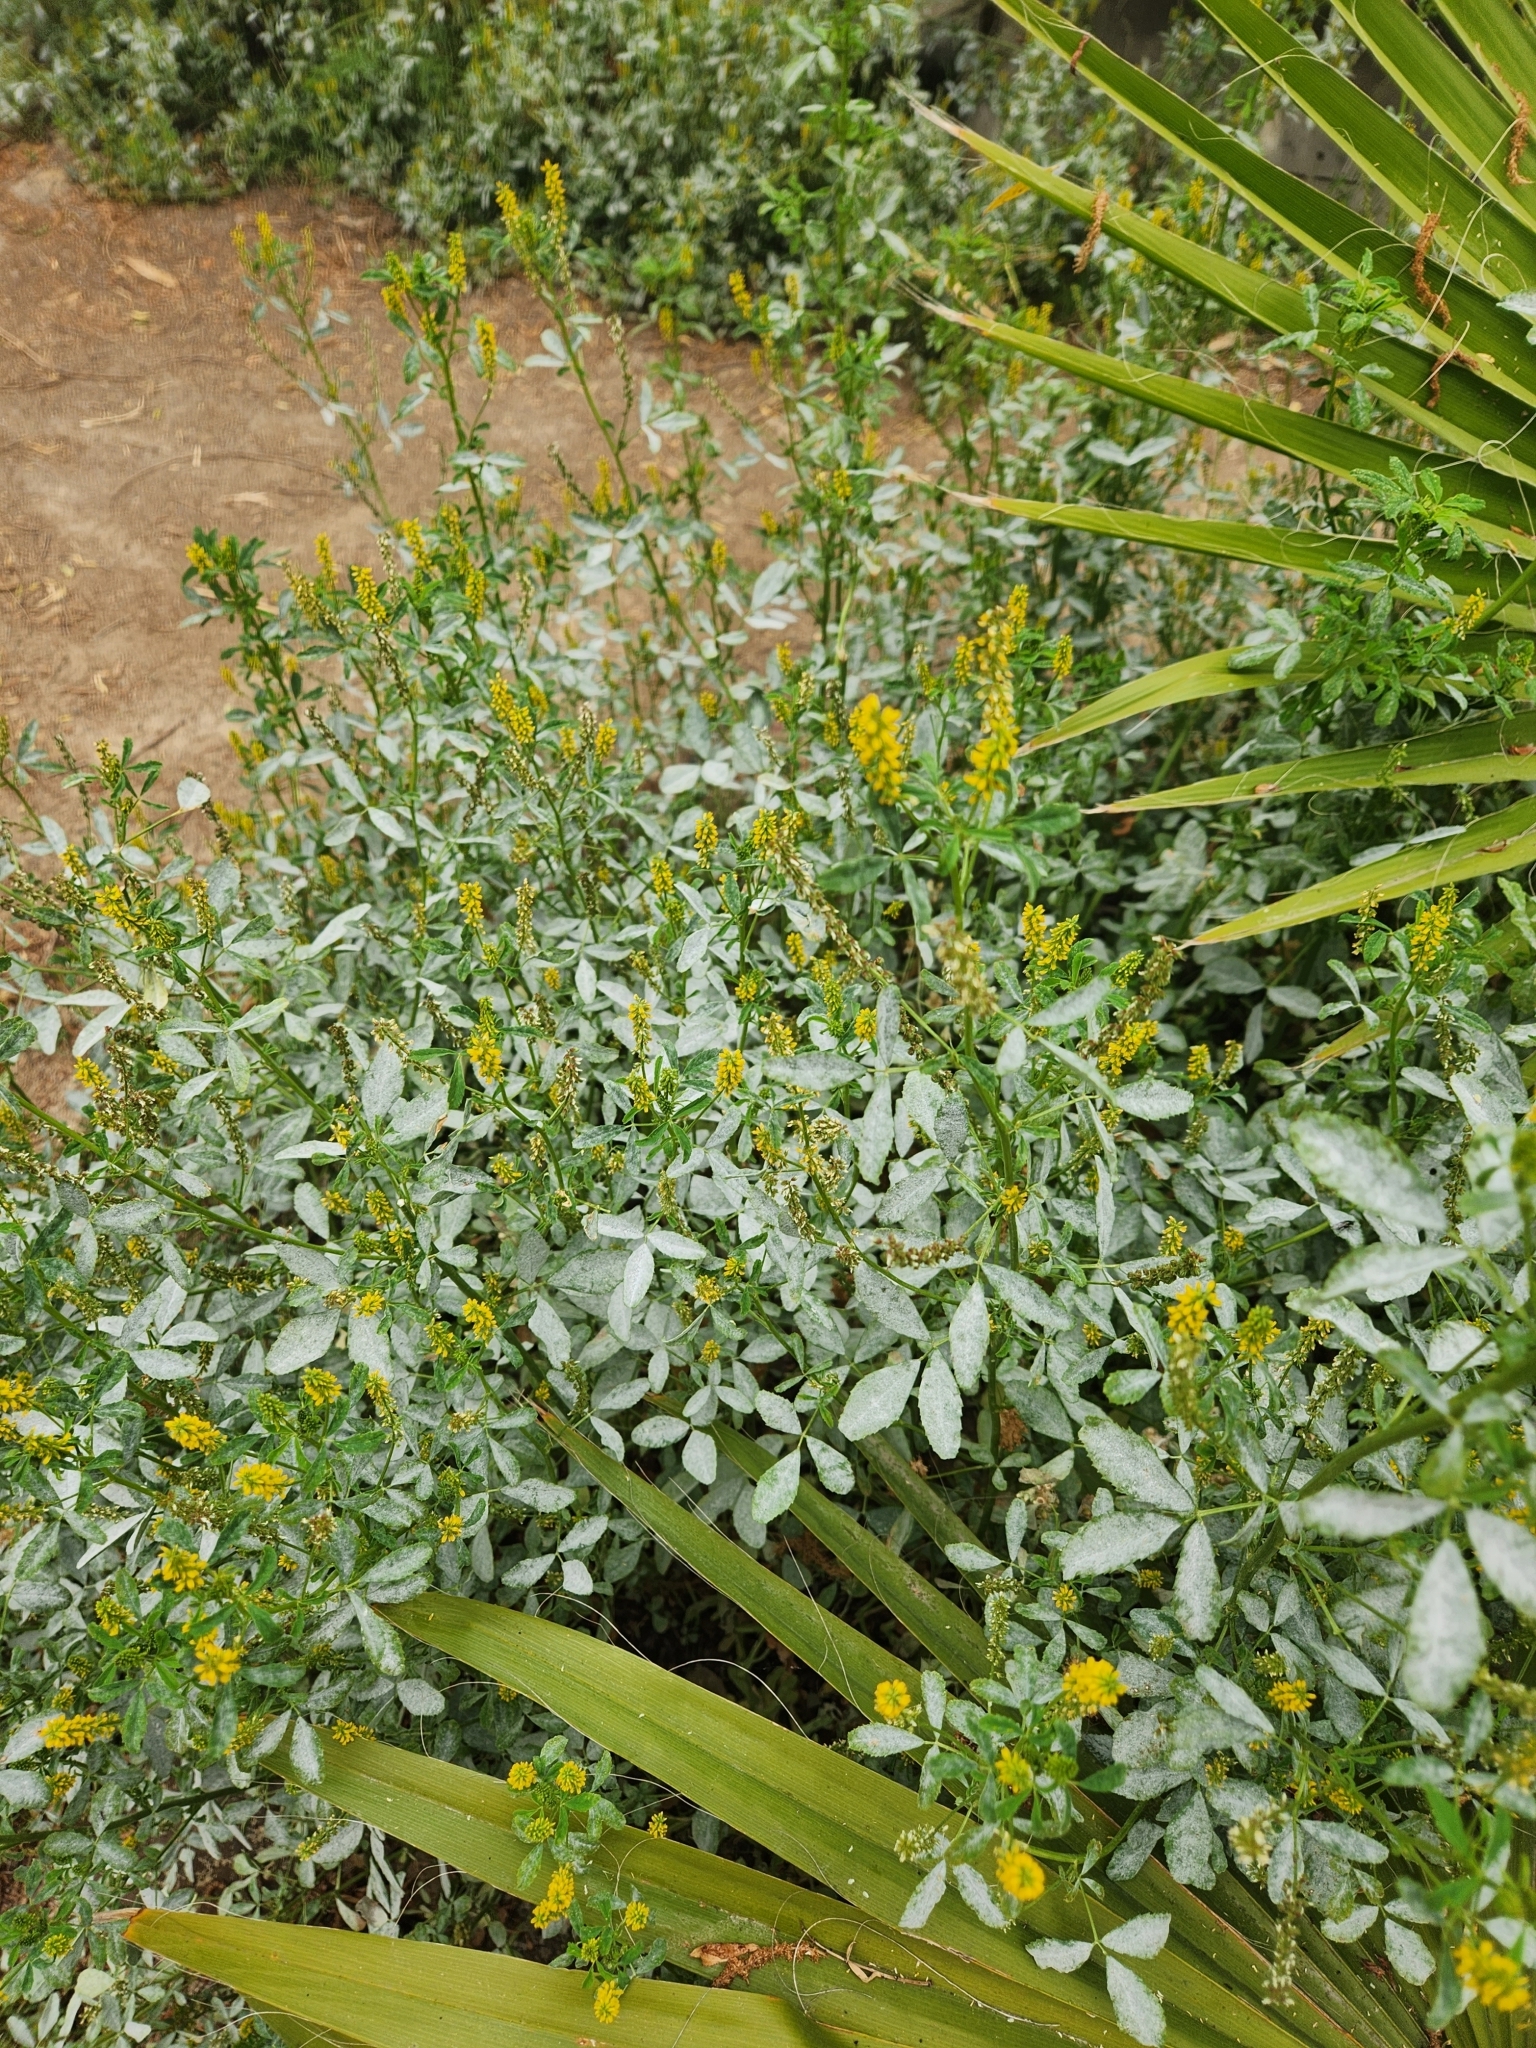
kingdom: Plantae
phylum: Tracheophyta
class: Magnoliopsida
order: Fabales
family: Fabaceae
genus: Melilotus
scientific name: Melilotus indicus
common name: Small melilot
